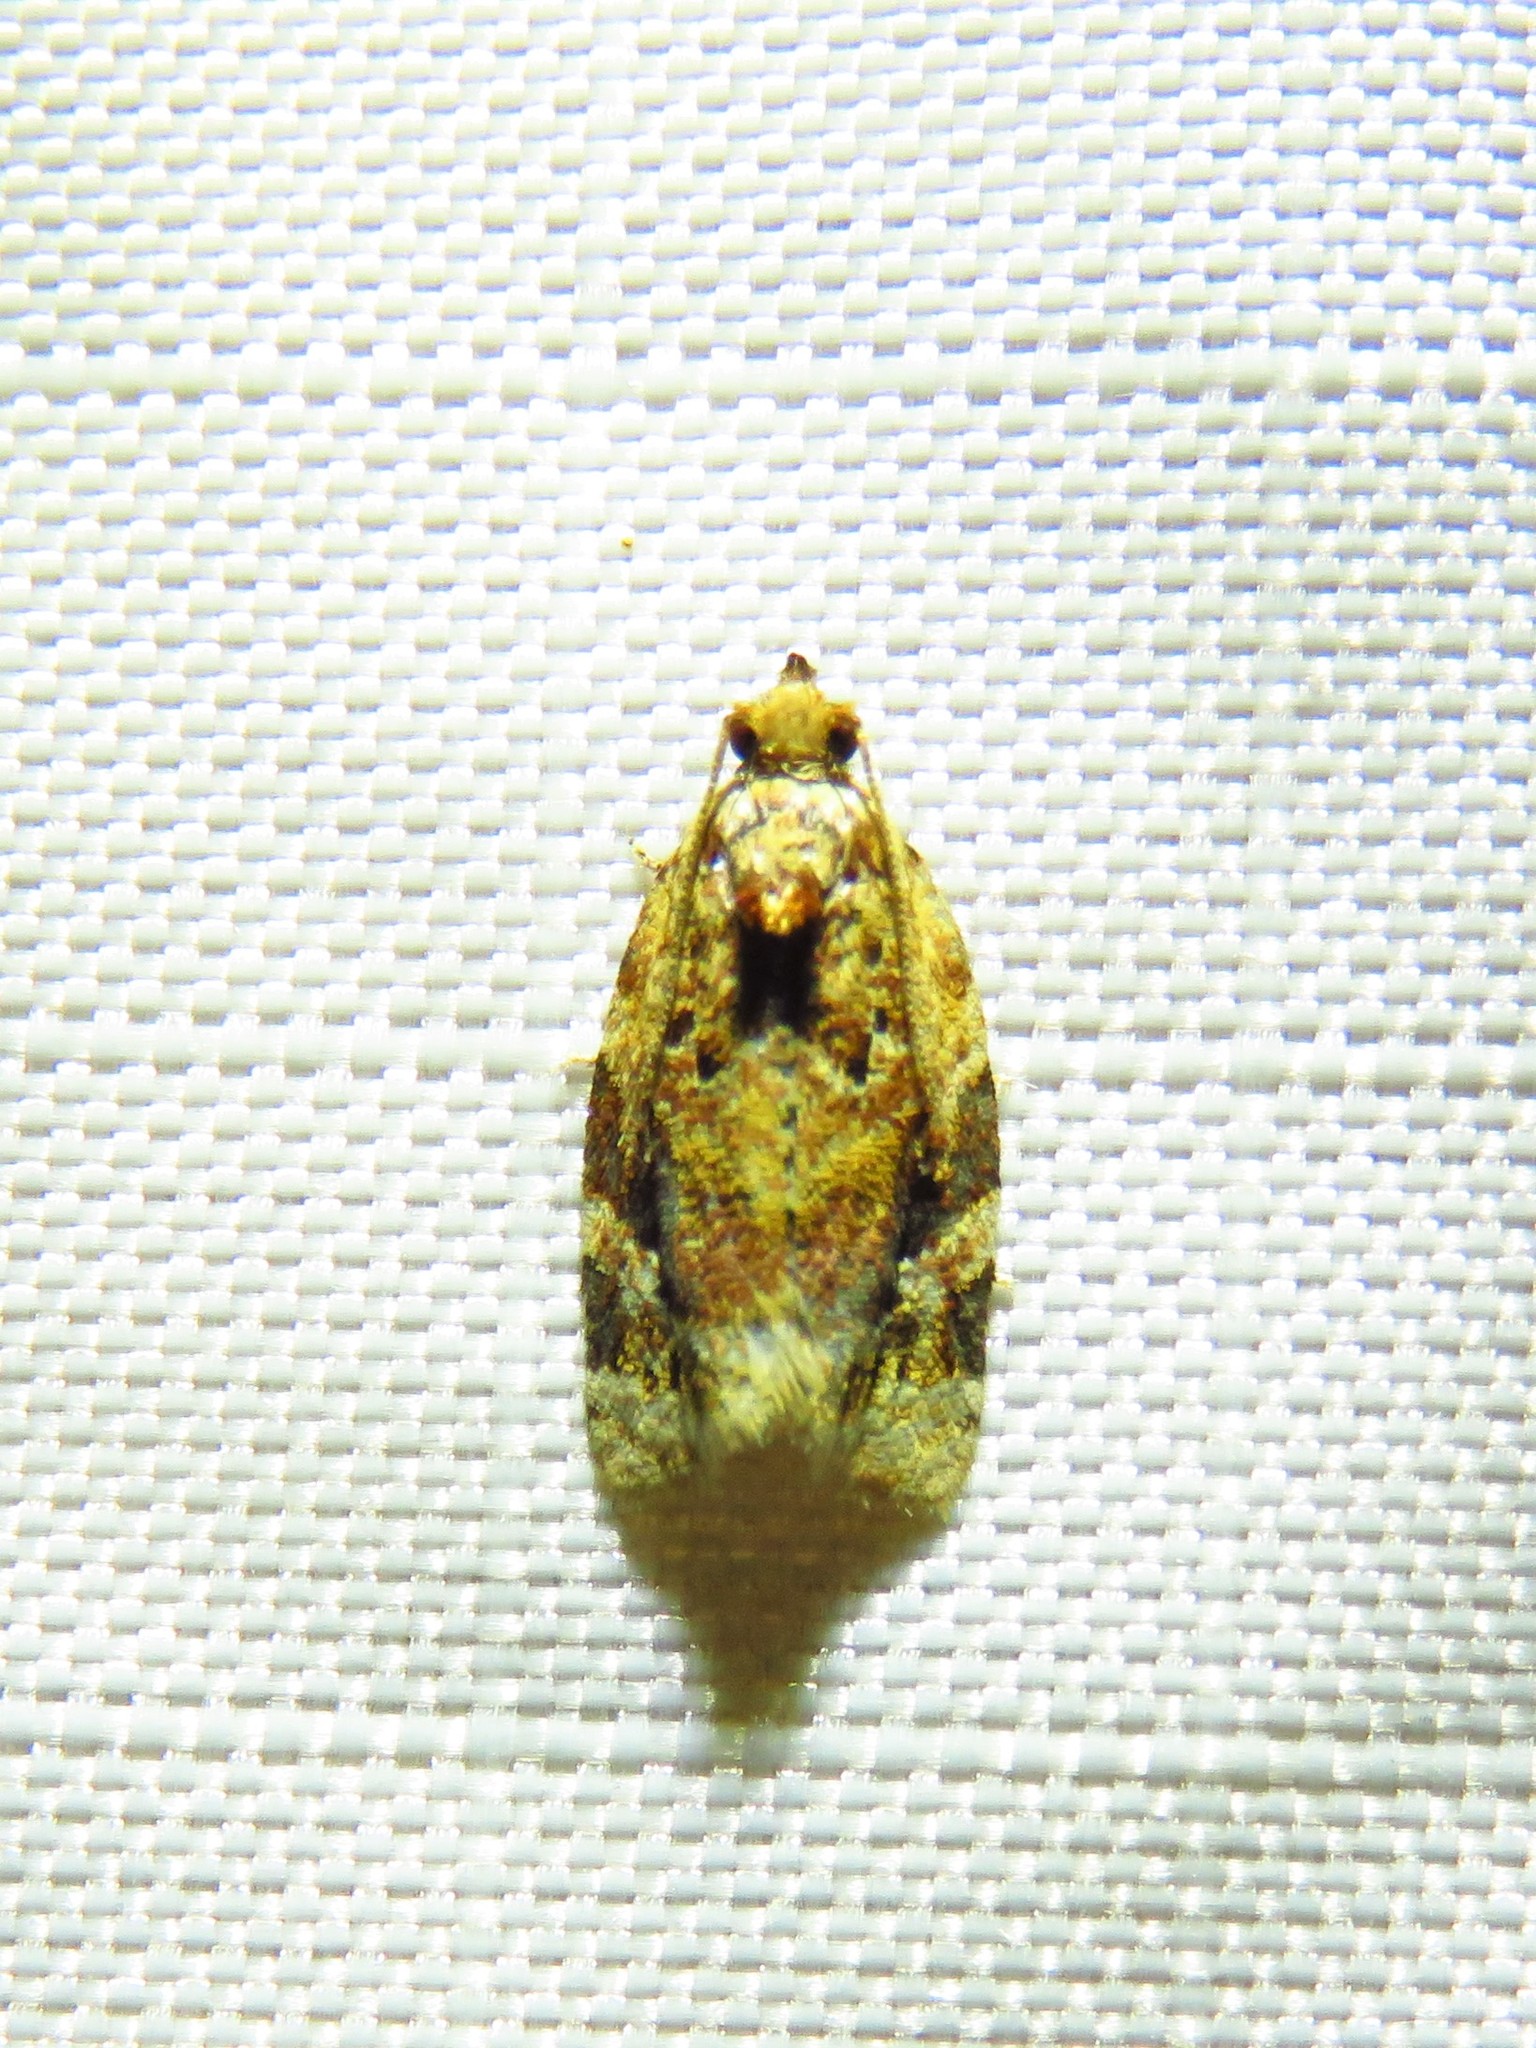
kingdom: Animalia
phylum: Arthropoda
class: Insecta
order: Lepidoptera
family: Tortricidae
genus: Argyrotaenia
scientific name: Argyrotaenia velutinana
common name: Red-banded leafroller moth
